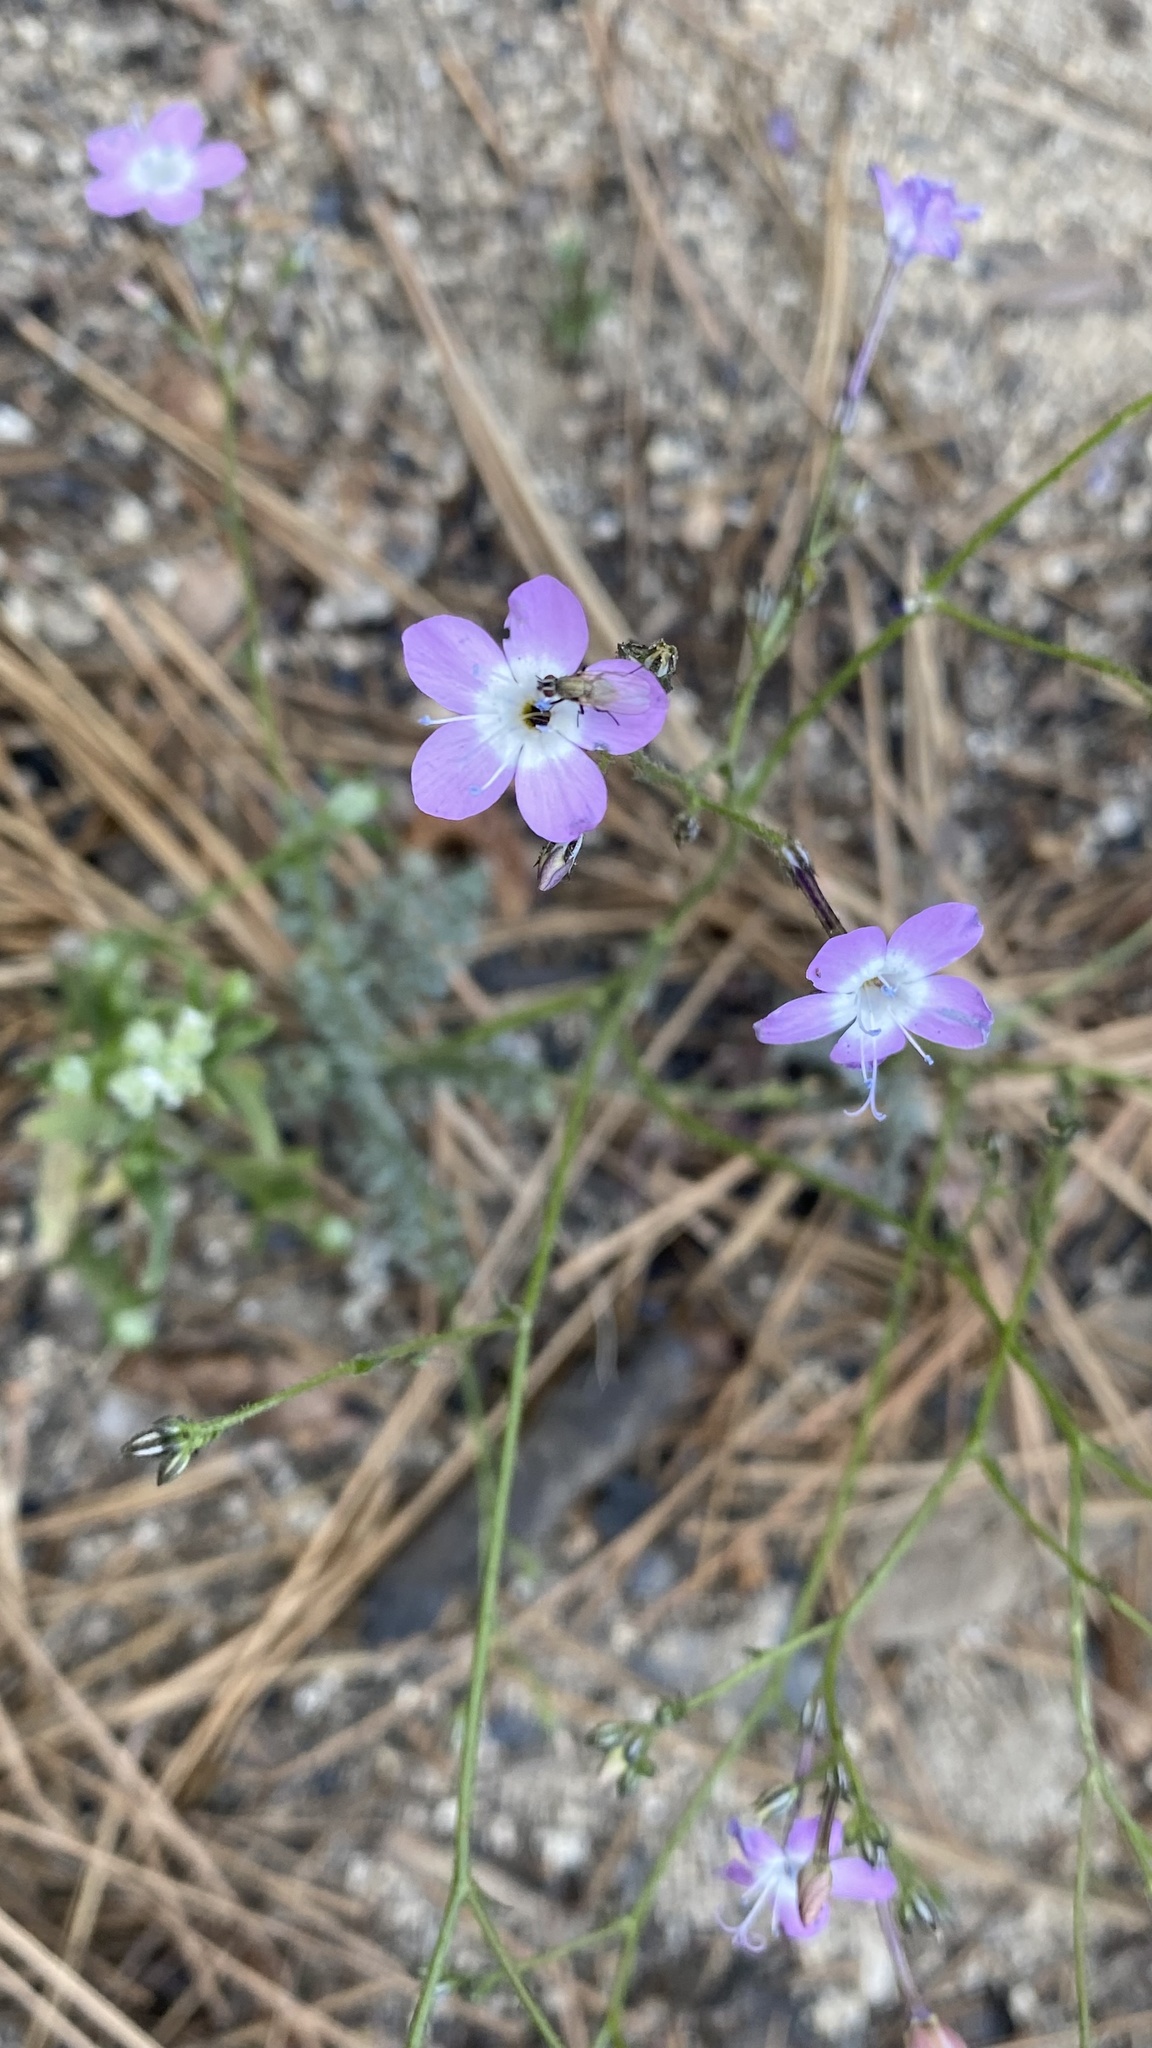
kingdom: Plantae
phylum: Tracheophyta
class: Magnoliopsida
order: Ericales
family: Polemoniaceae
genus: Gilia
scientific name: Gilia leptantha
